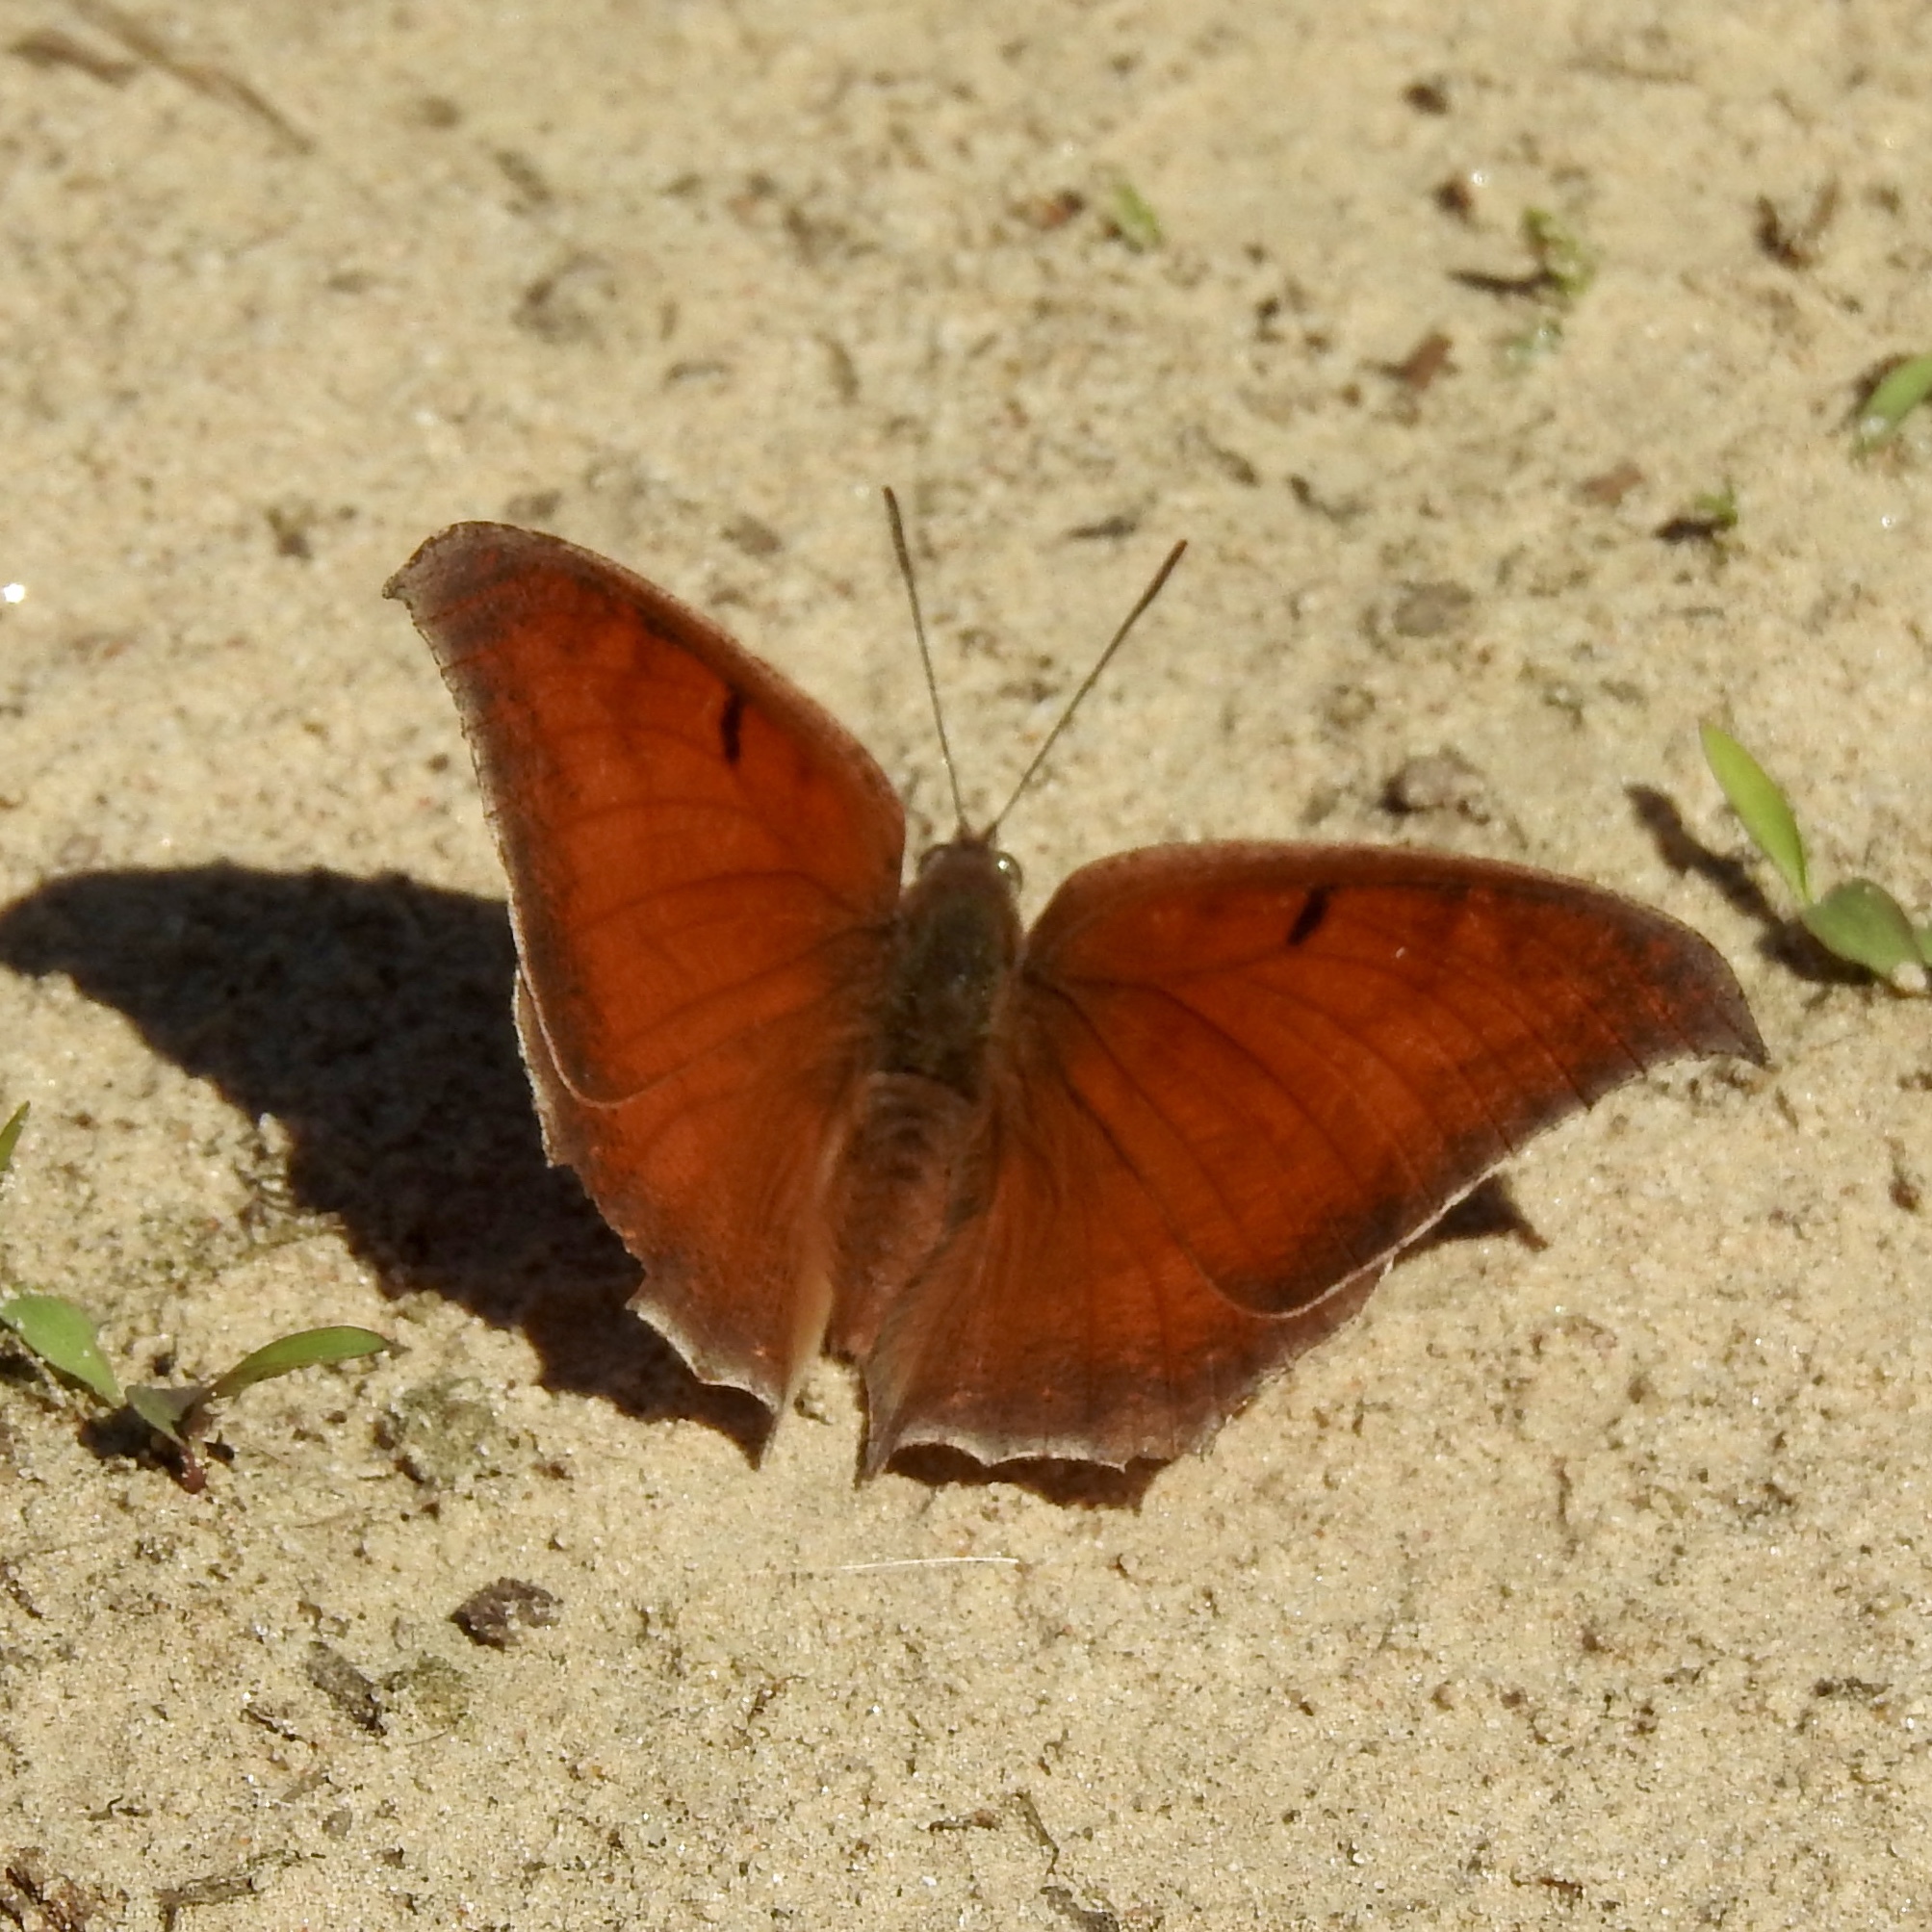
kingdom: Animalia
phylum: Arthropoda
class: Insecta
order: Lepidoptera
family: Nymphalidae
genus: Anaea
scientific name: Anaea andria
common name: Goatweed leafwing
